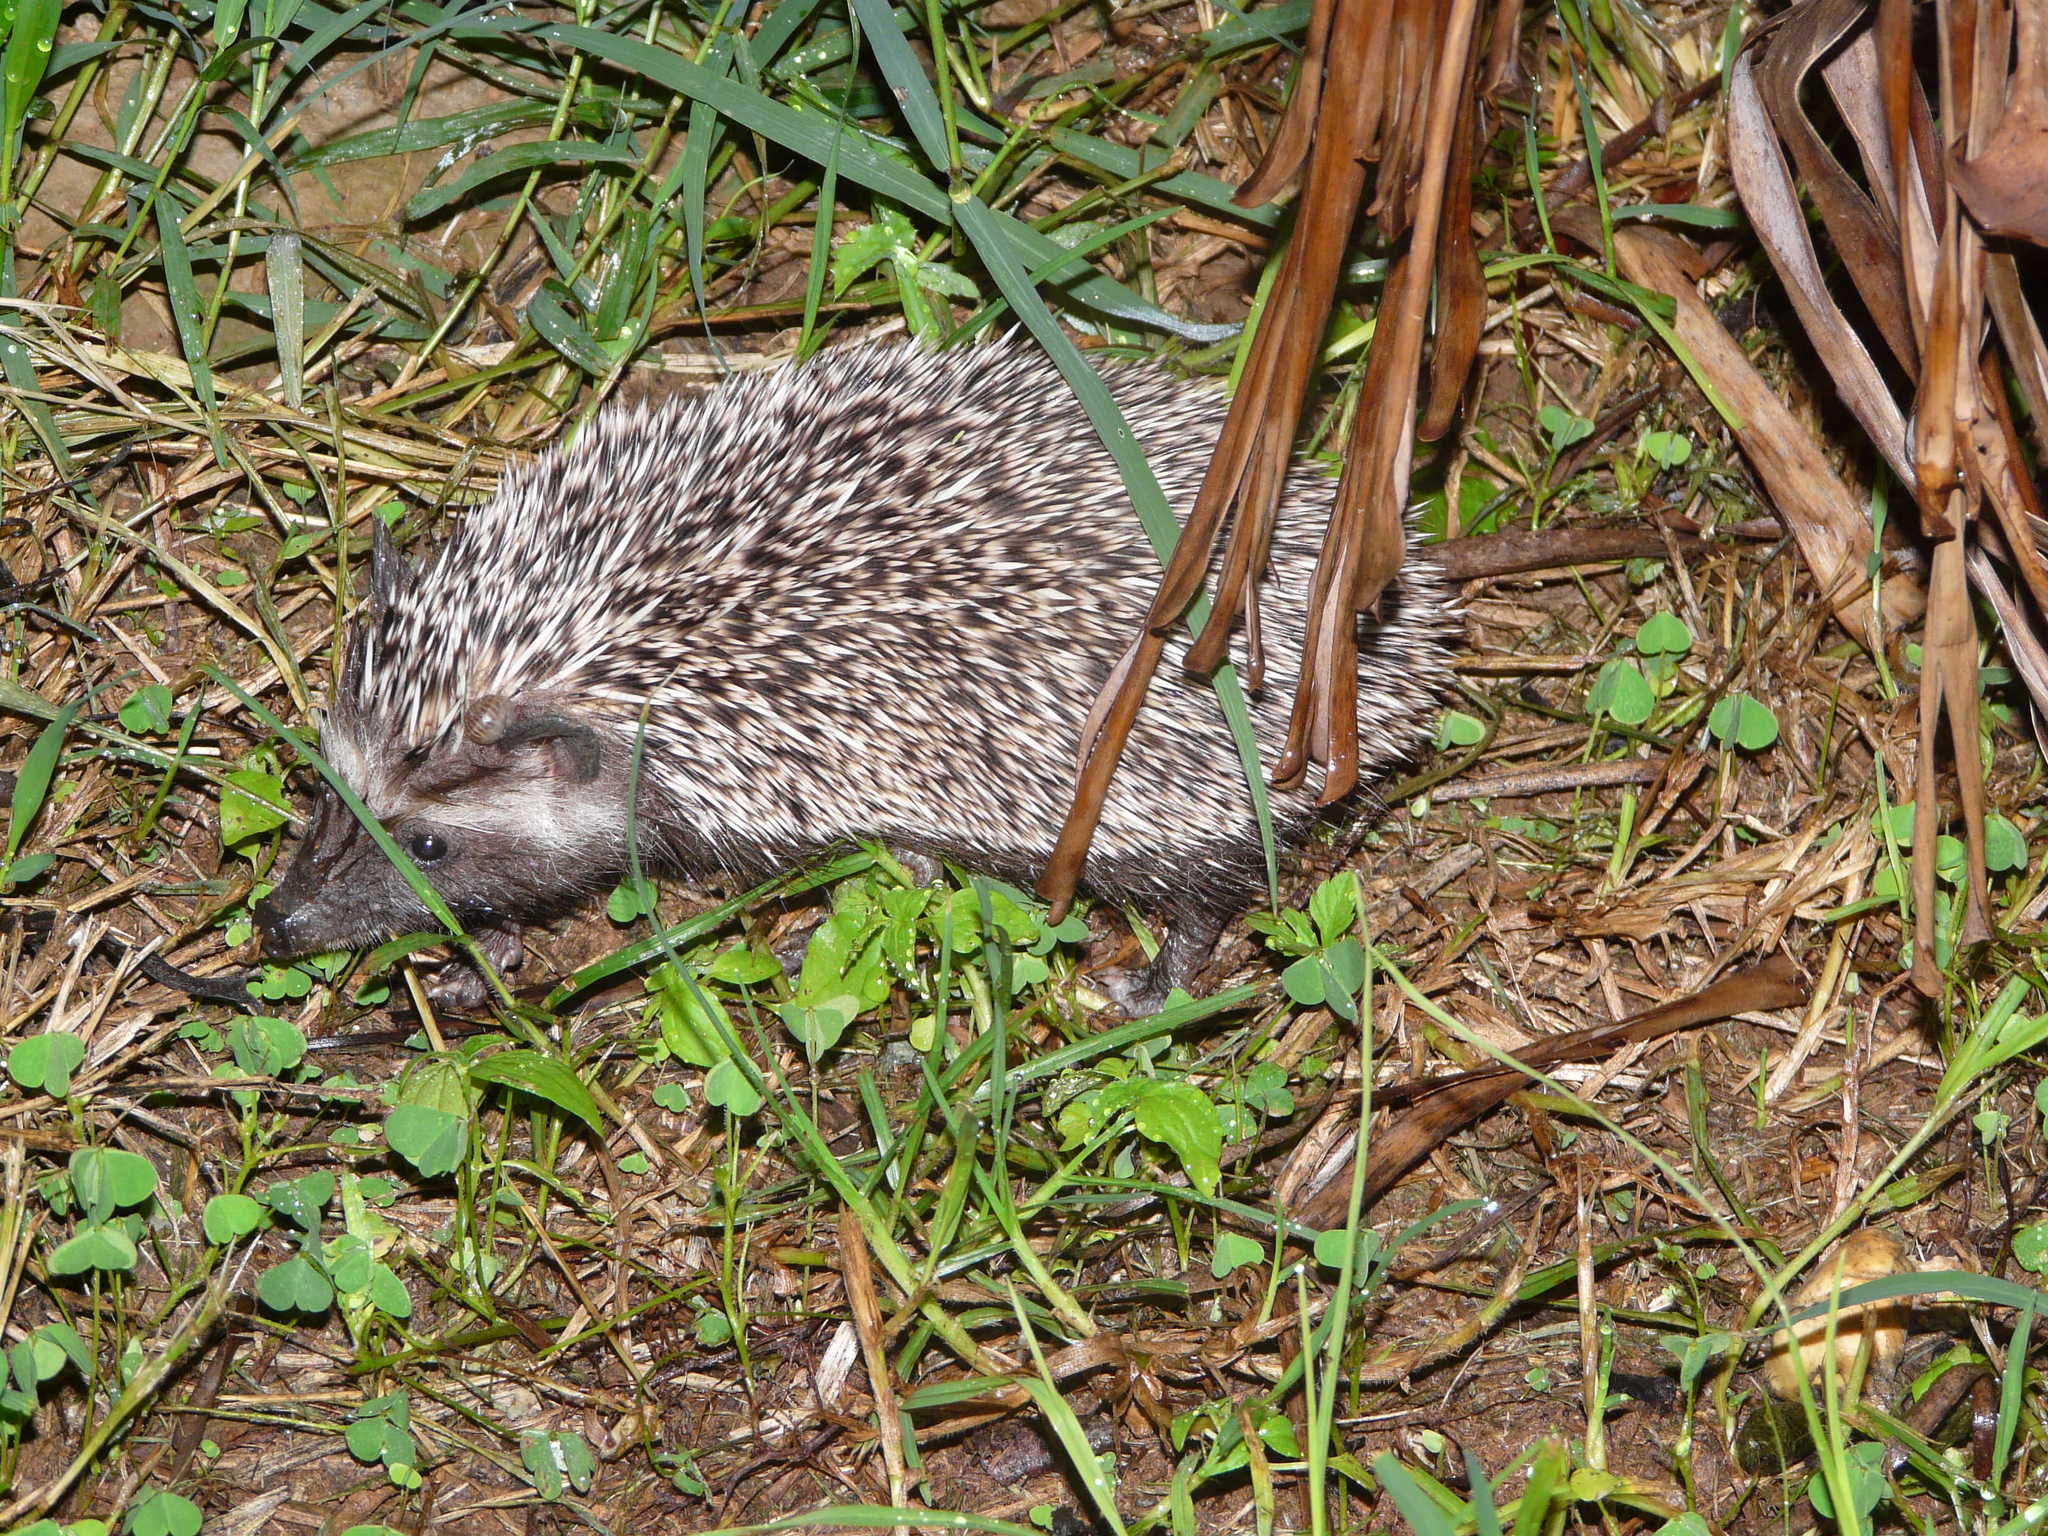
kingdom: Animalia
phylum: Chordata
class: Mammalia
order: Erinaceomorpha
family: Erinaceidae
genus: Atelerix
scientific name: Atelerix frontalis
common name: Southern african hedgehog
